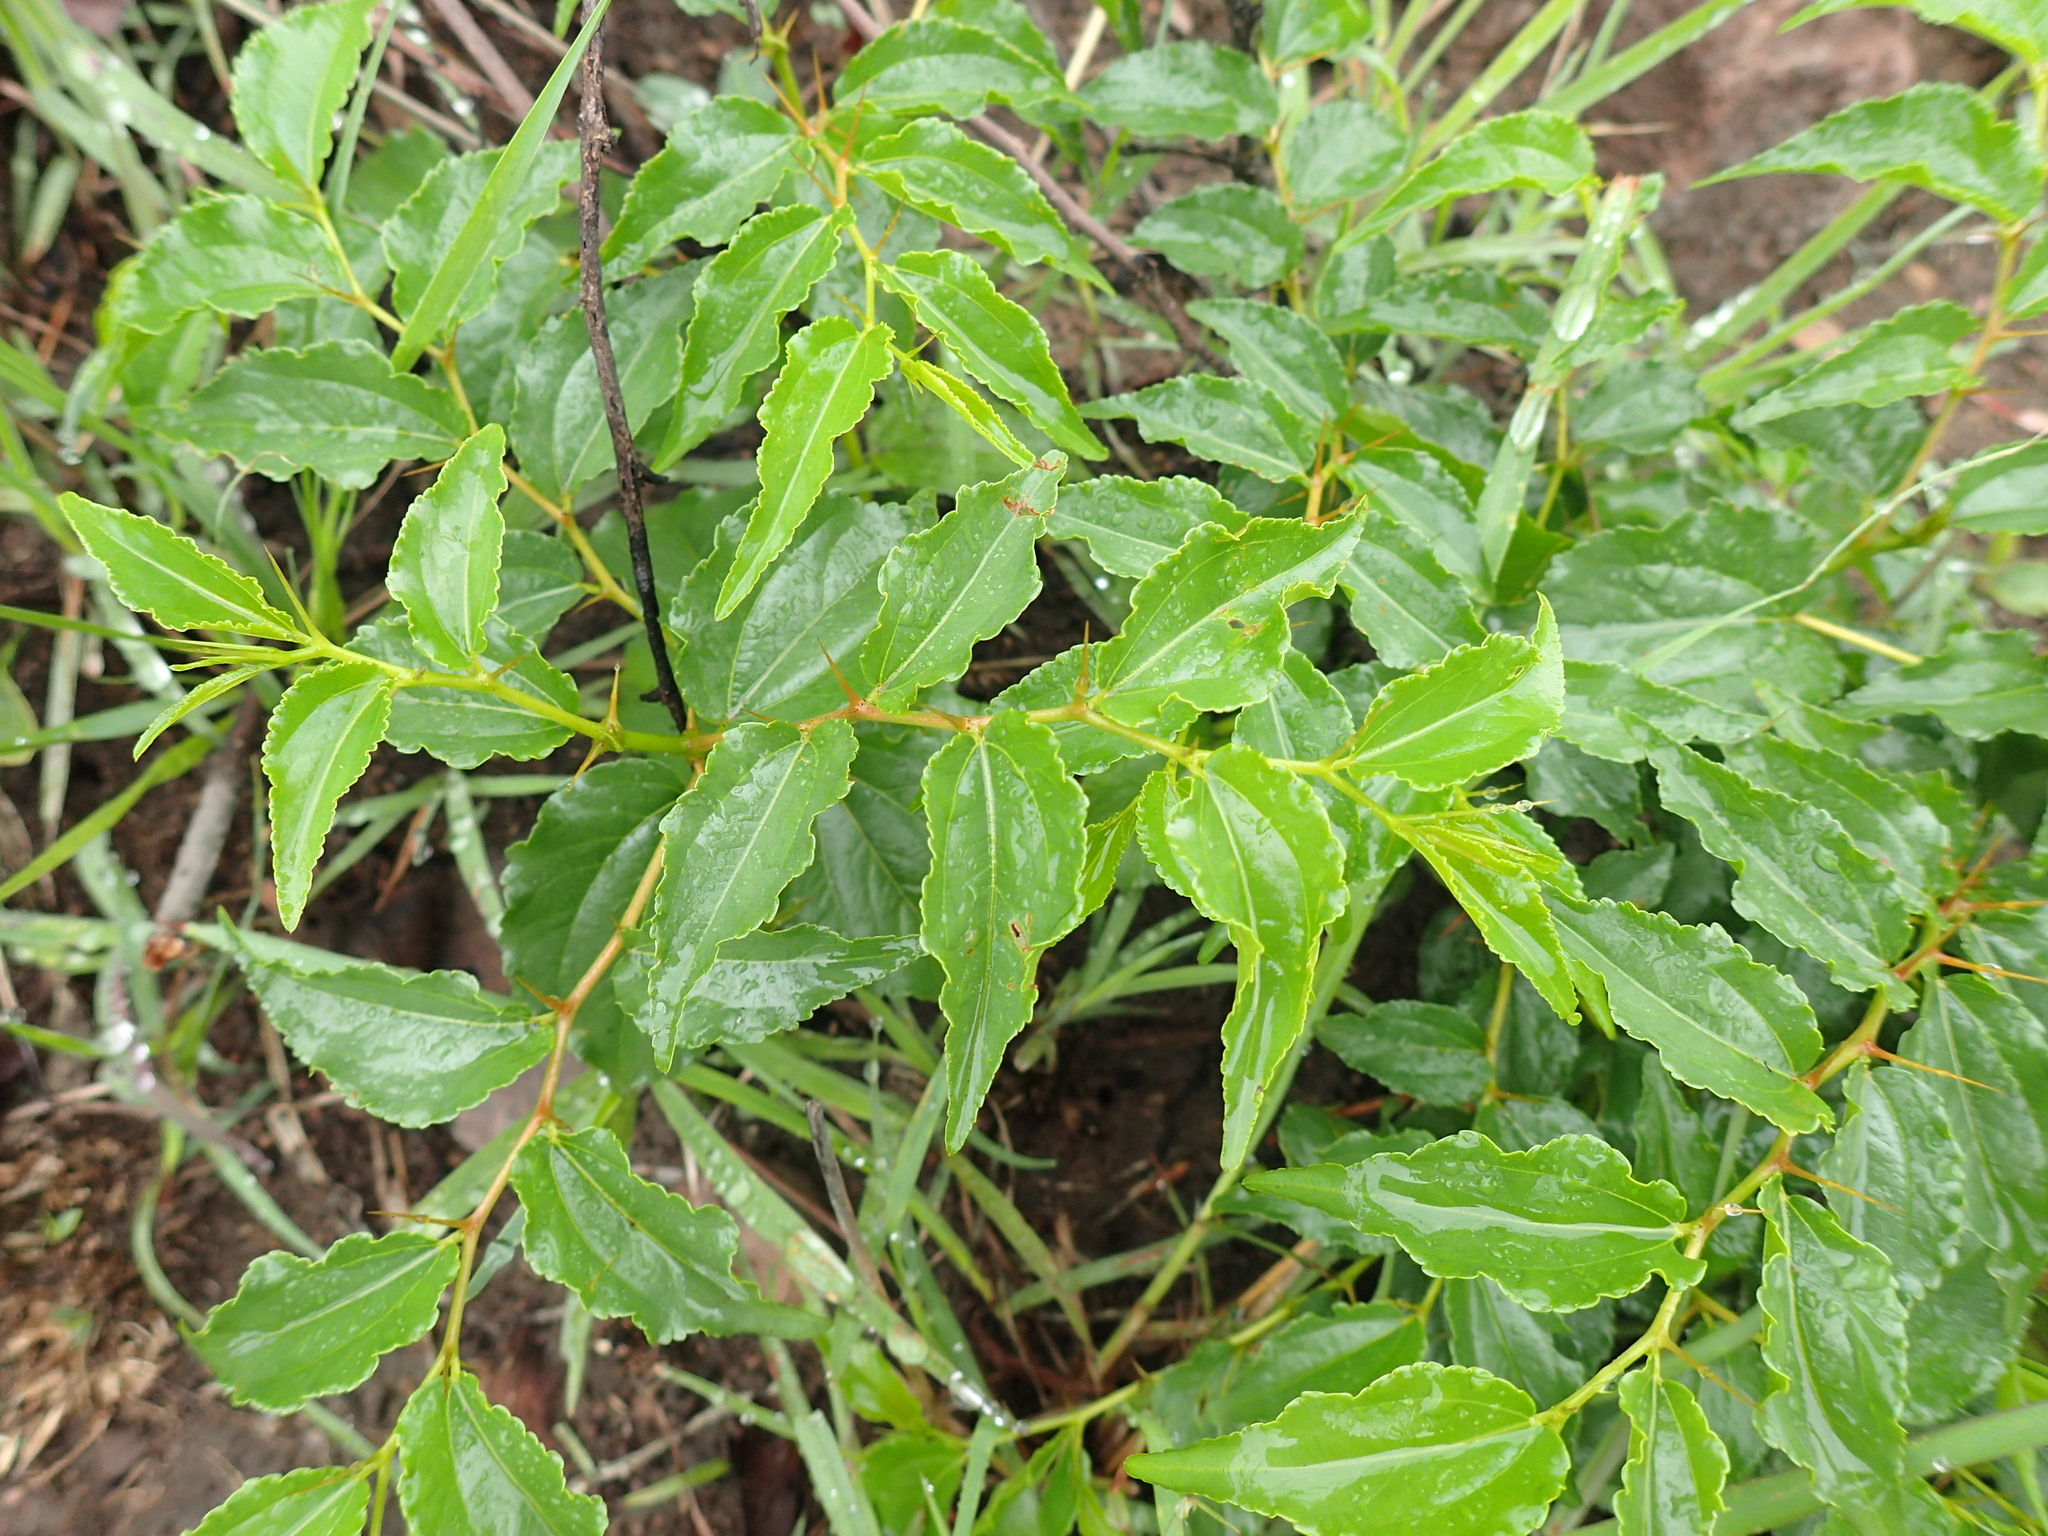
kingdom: Plantae
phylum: Tracheophyta
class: Magnoliopsida
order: Rosales
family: Rhamnaceae
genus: Ziziphus
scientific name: Ziziphus mucronata
